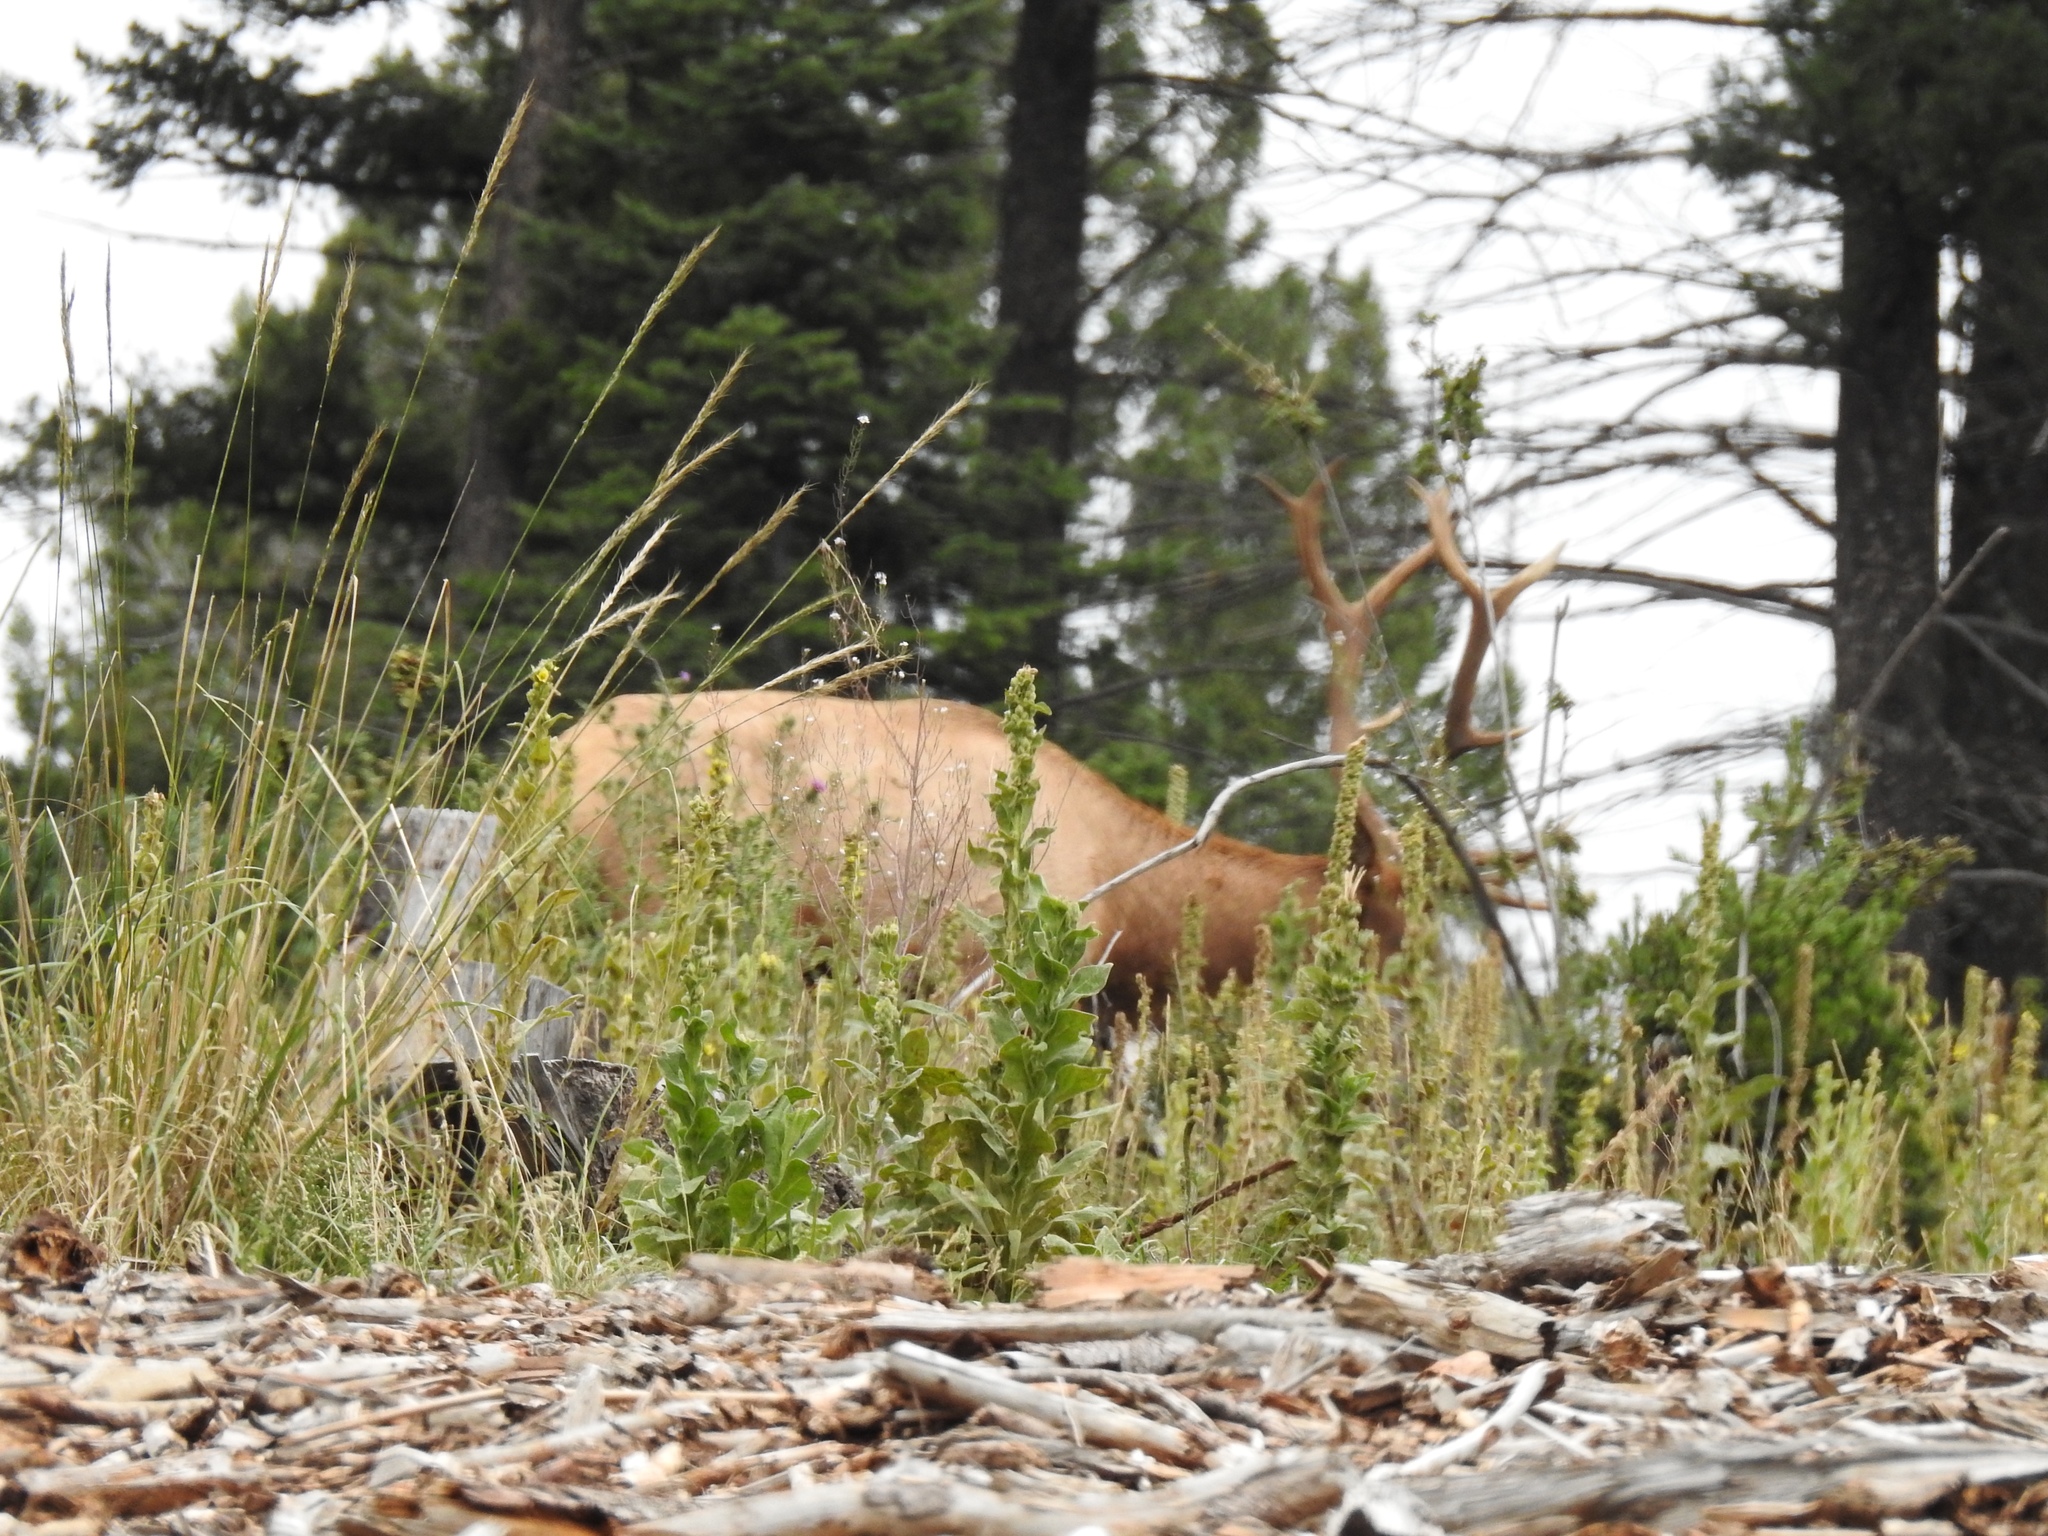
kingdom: Animalia
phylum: Chordata
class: Mammalia
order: Artiodactyla
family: Cervidae
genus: Cervus
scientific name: Cervus elaphus
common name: Red deer
